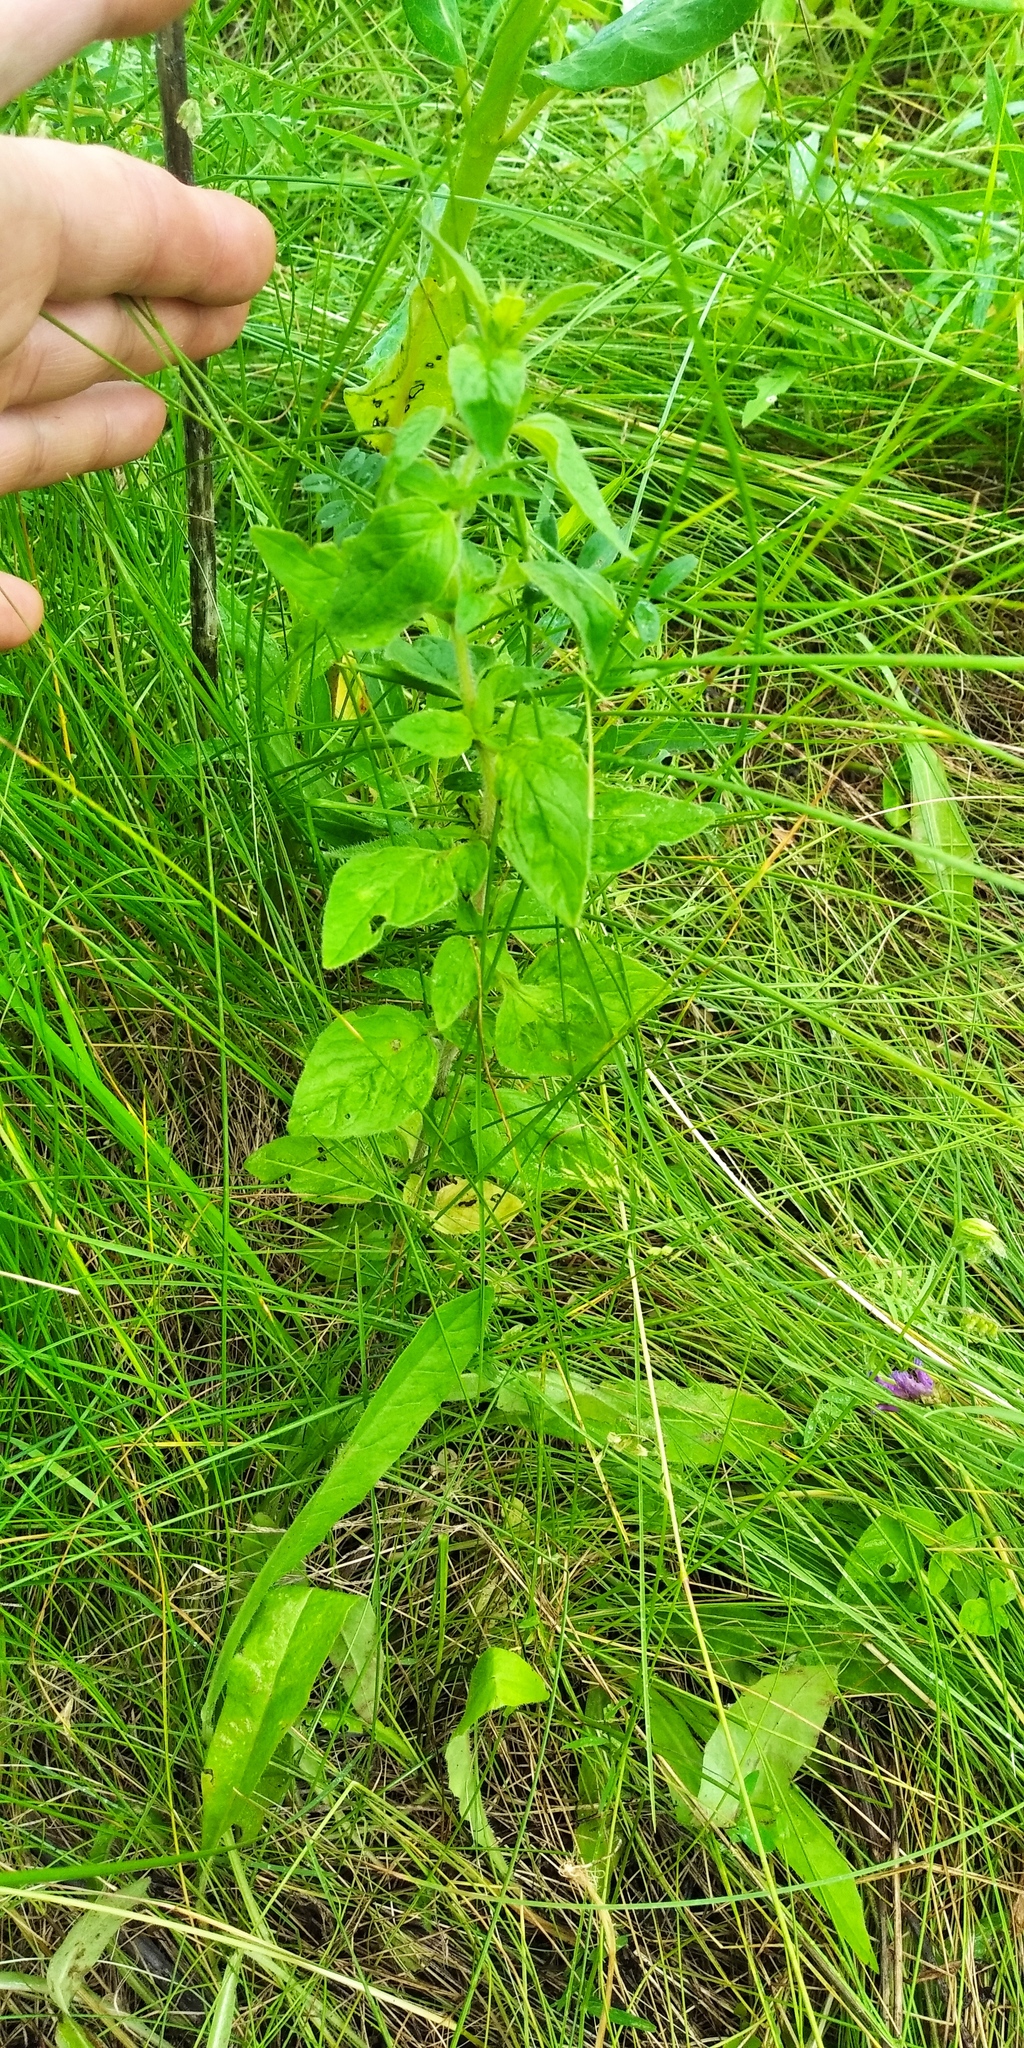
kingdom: Plantae
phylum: Tracheophyta
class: Magnoliopsida
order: Lamiales
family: Lamiaceae
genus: Origanum
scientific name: Origanum vulgare
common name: Wild marjoram
